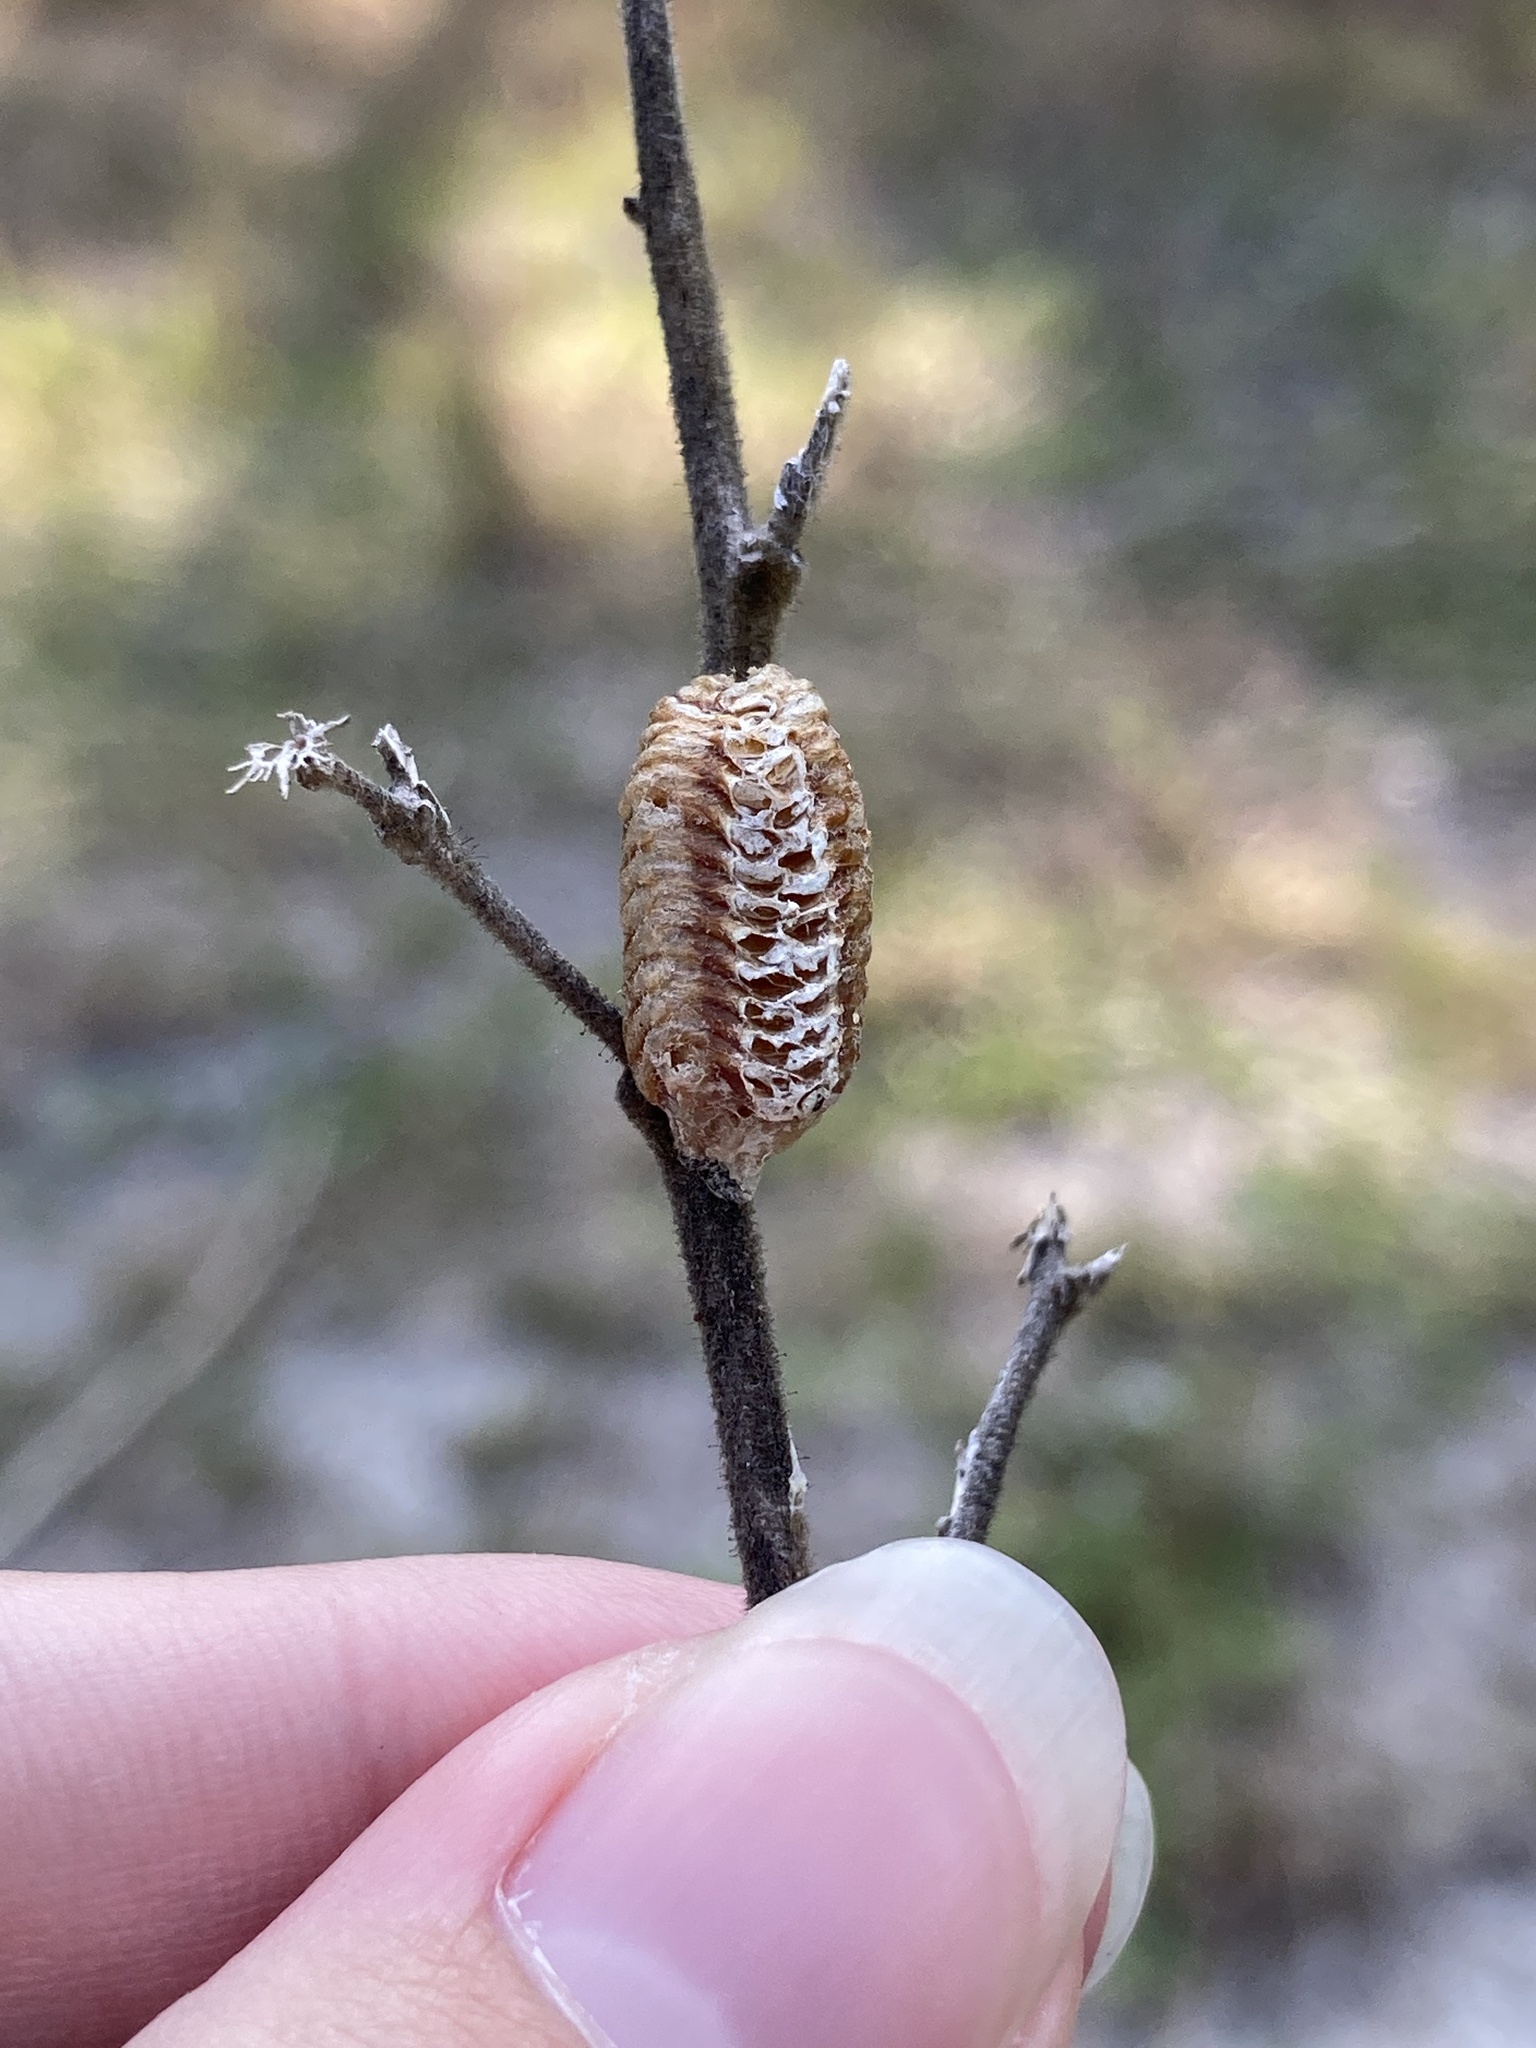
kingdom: Animalia
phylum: Arthropoda
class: Insecta
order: Mantodea
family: Mantidae
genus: Stagmomantis
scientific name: Stagmomantis carolina
